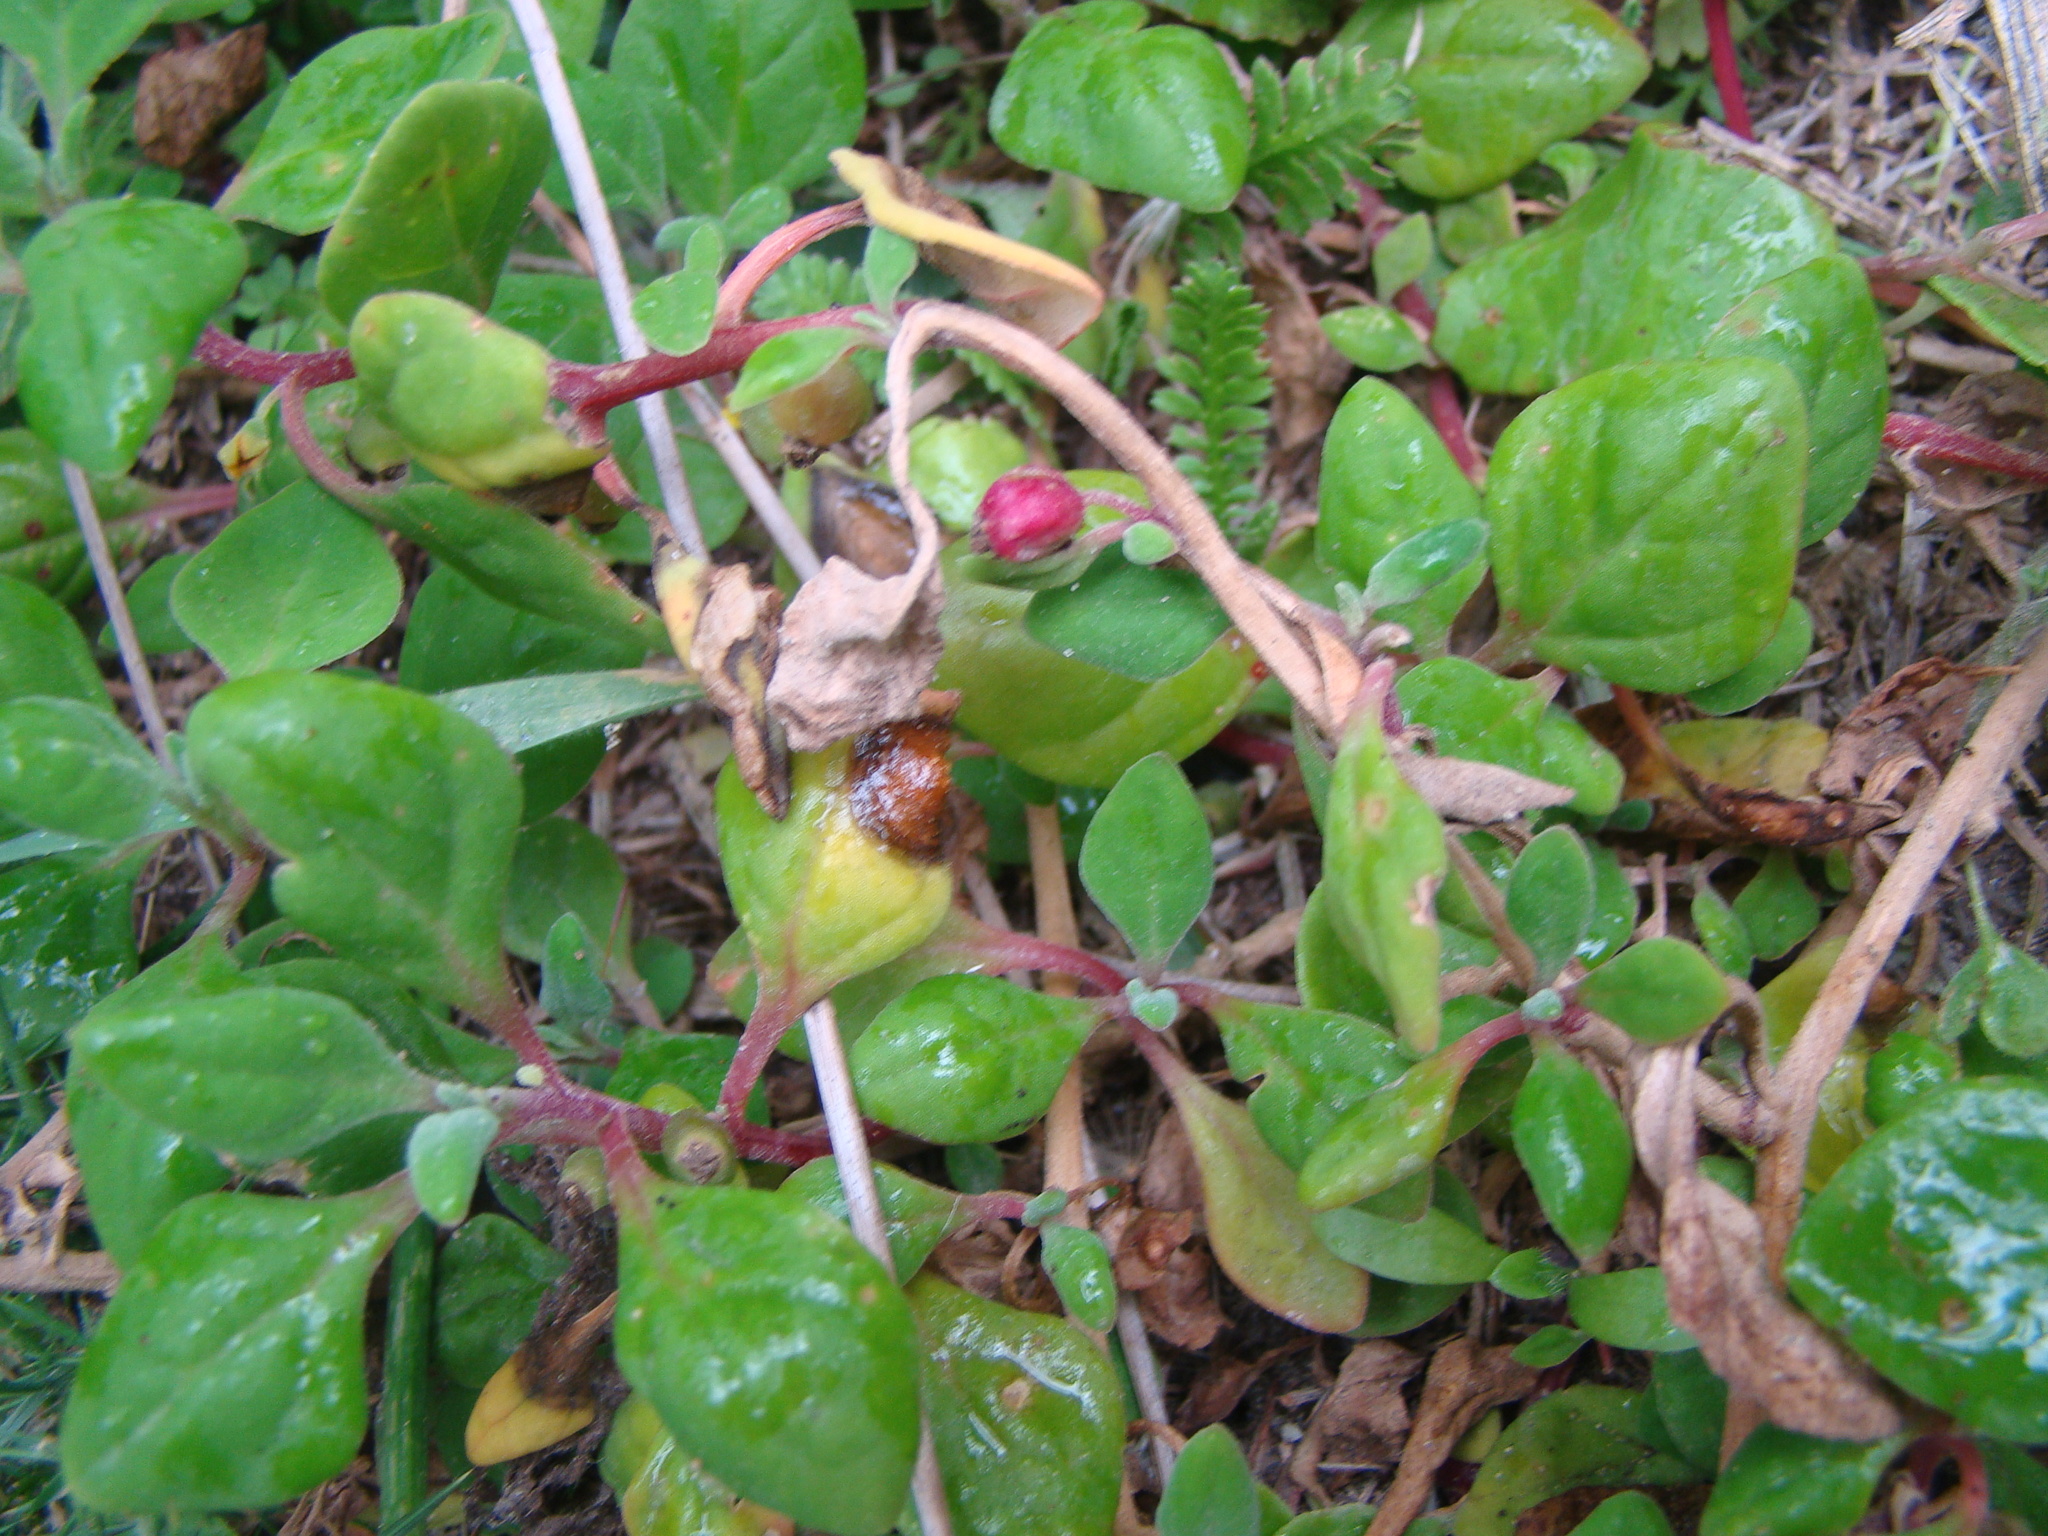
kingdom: Plantae
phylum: Tracheophyta
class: Magnoliopsida
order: Caryophyllales
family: Aizoaceae
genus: Tetragonia
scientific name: Tetragonia implexicoma
